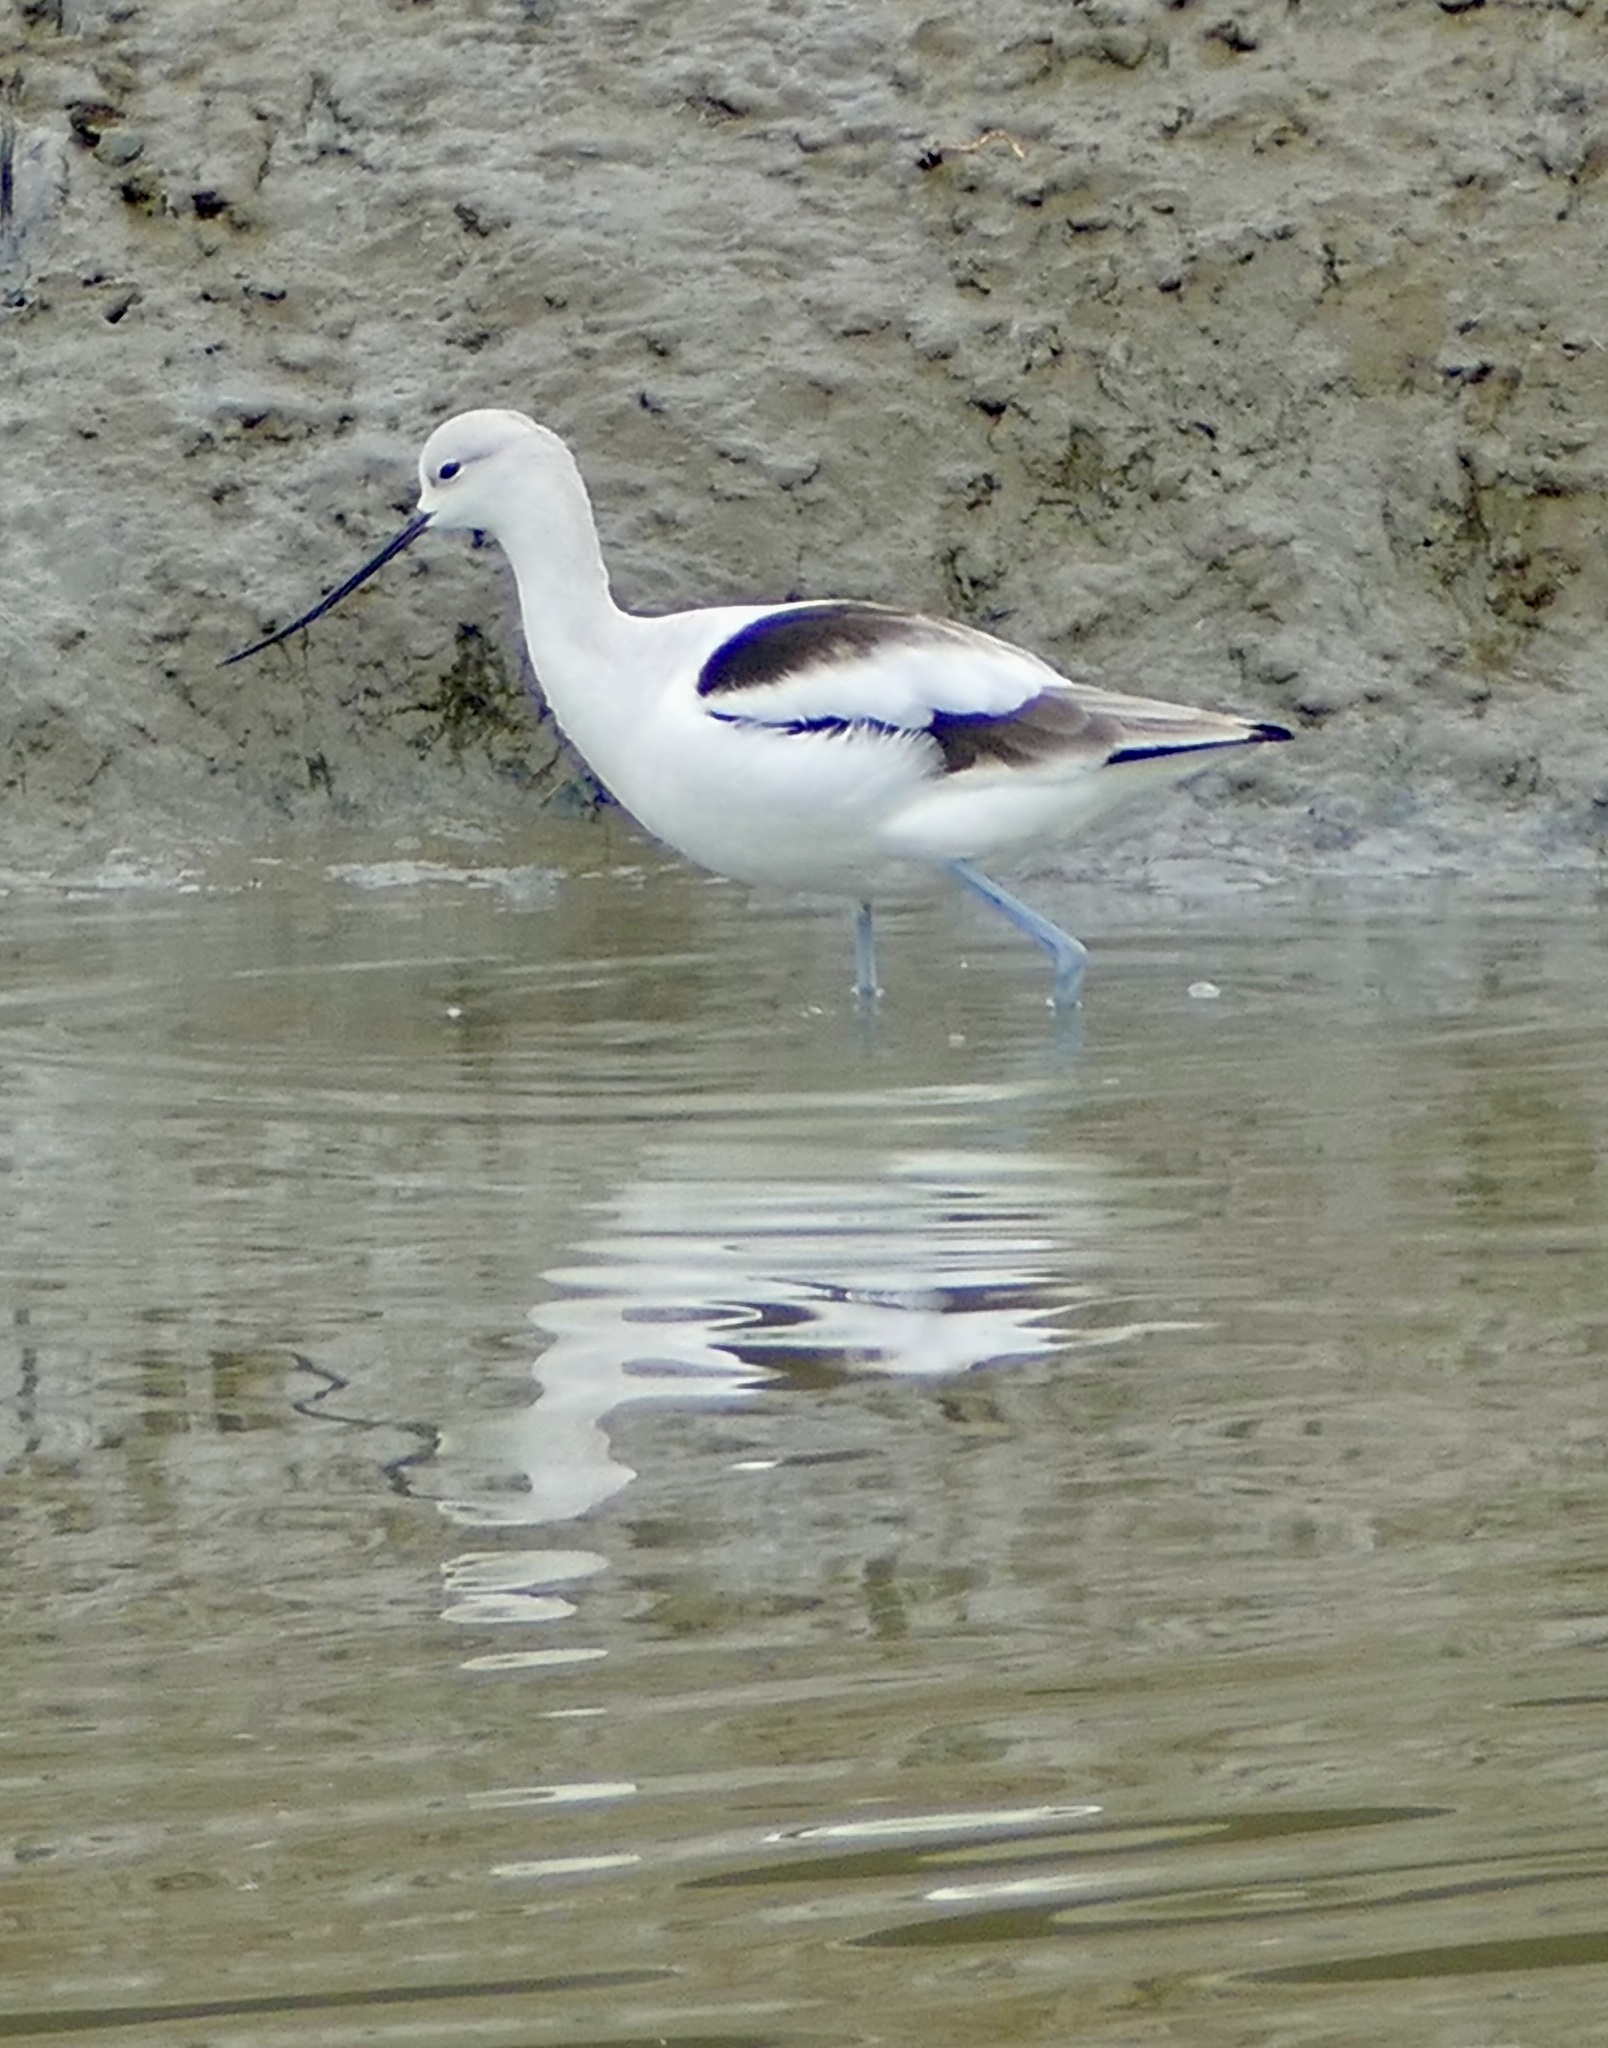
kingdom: Animalia
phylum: Chordata
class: Aves
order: Charadriiformes
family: Recurvirostridae
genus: Recurvirostra
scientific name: Recurvirostra americana
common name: American avocet
